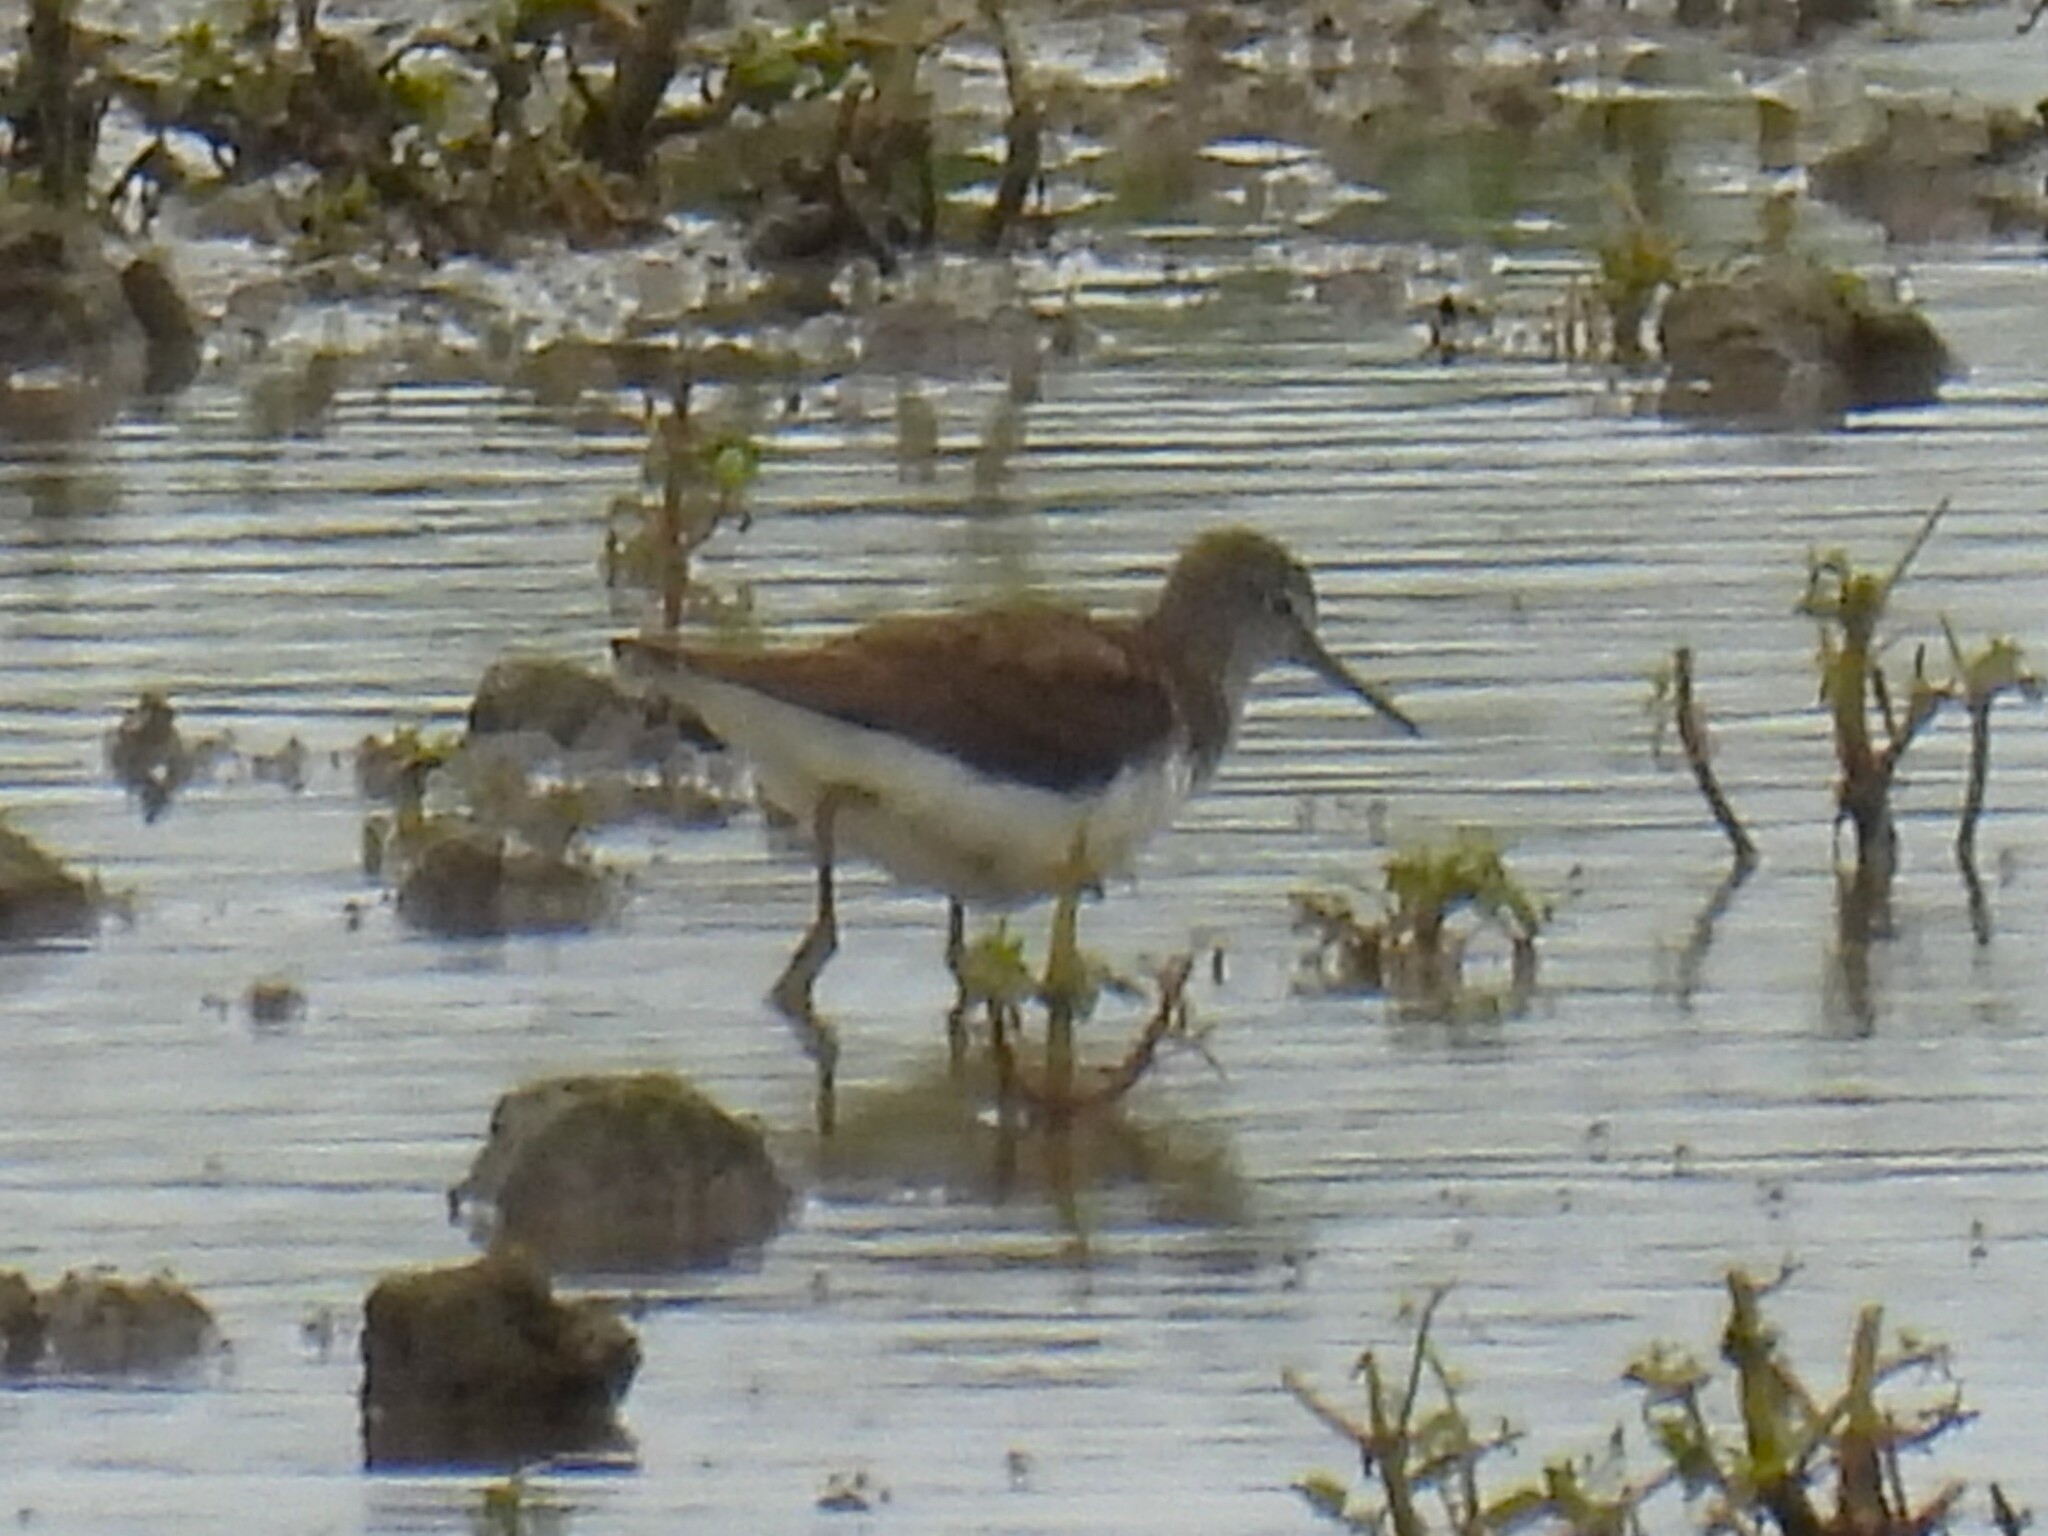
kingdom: Animalia
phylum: Chordata
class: Aves
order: Charadriiformes
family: Scolopacidae
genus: Tringa
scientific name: Tringa ochropus
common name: Green sandpiper
